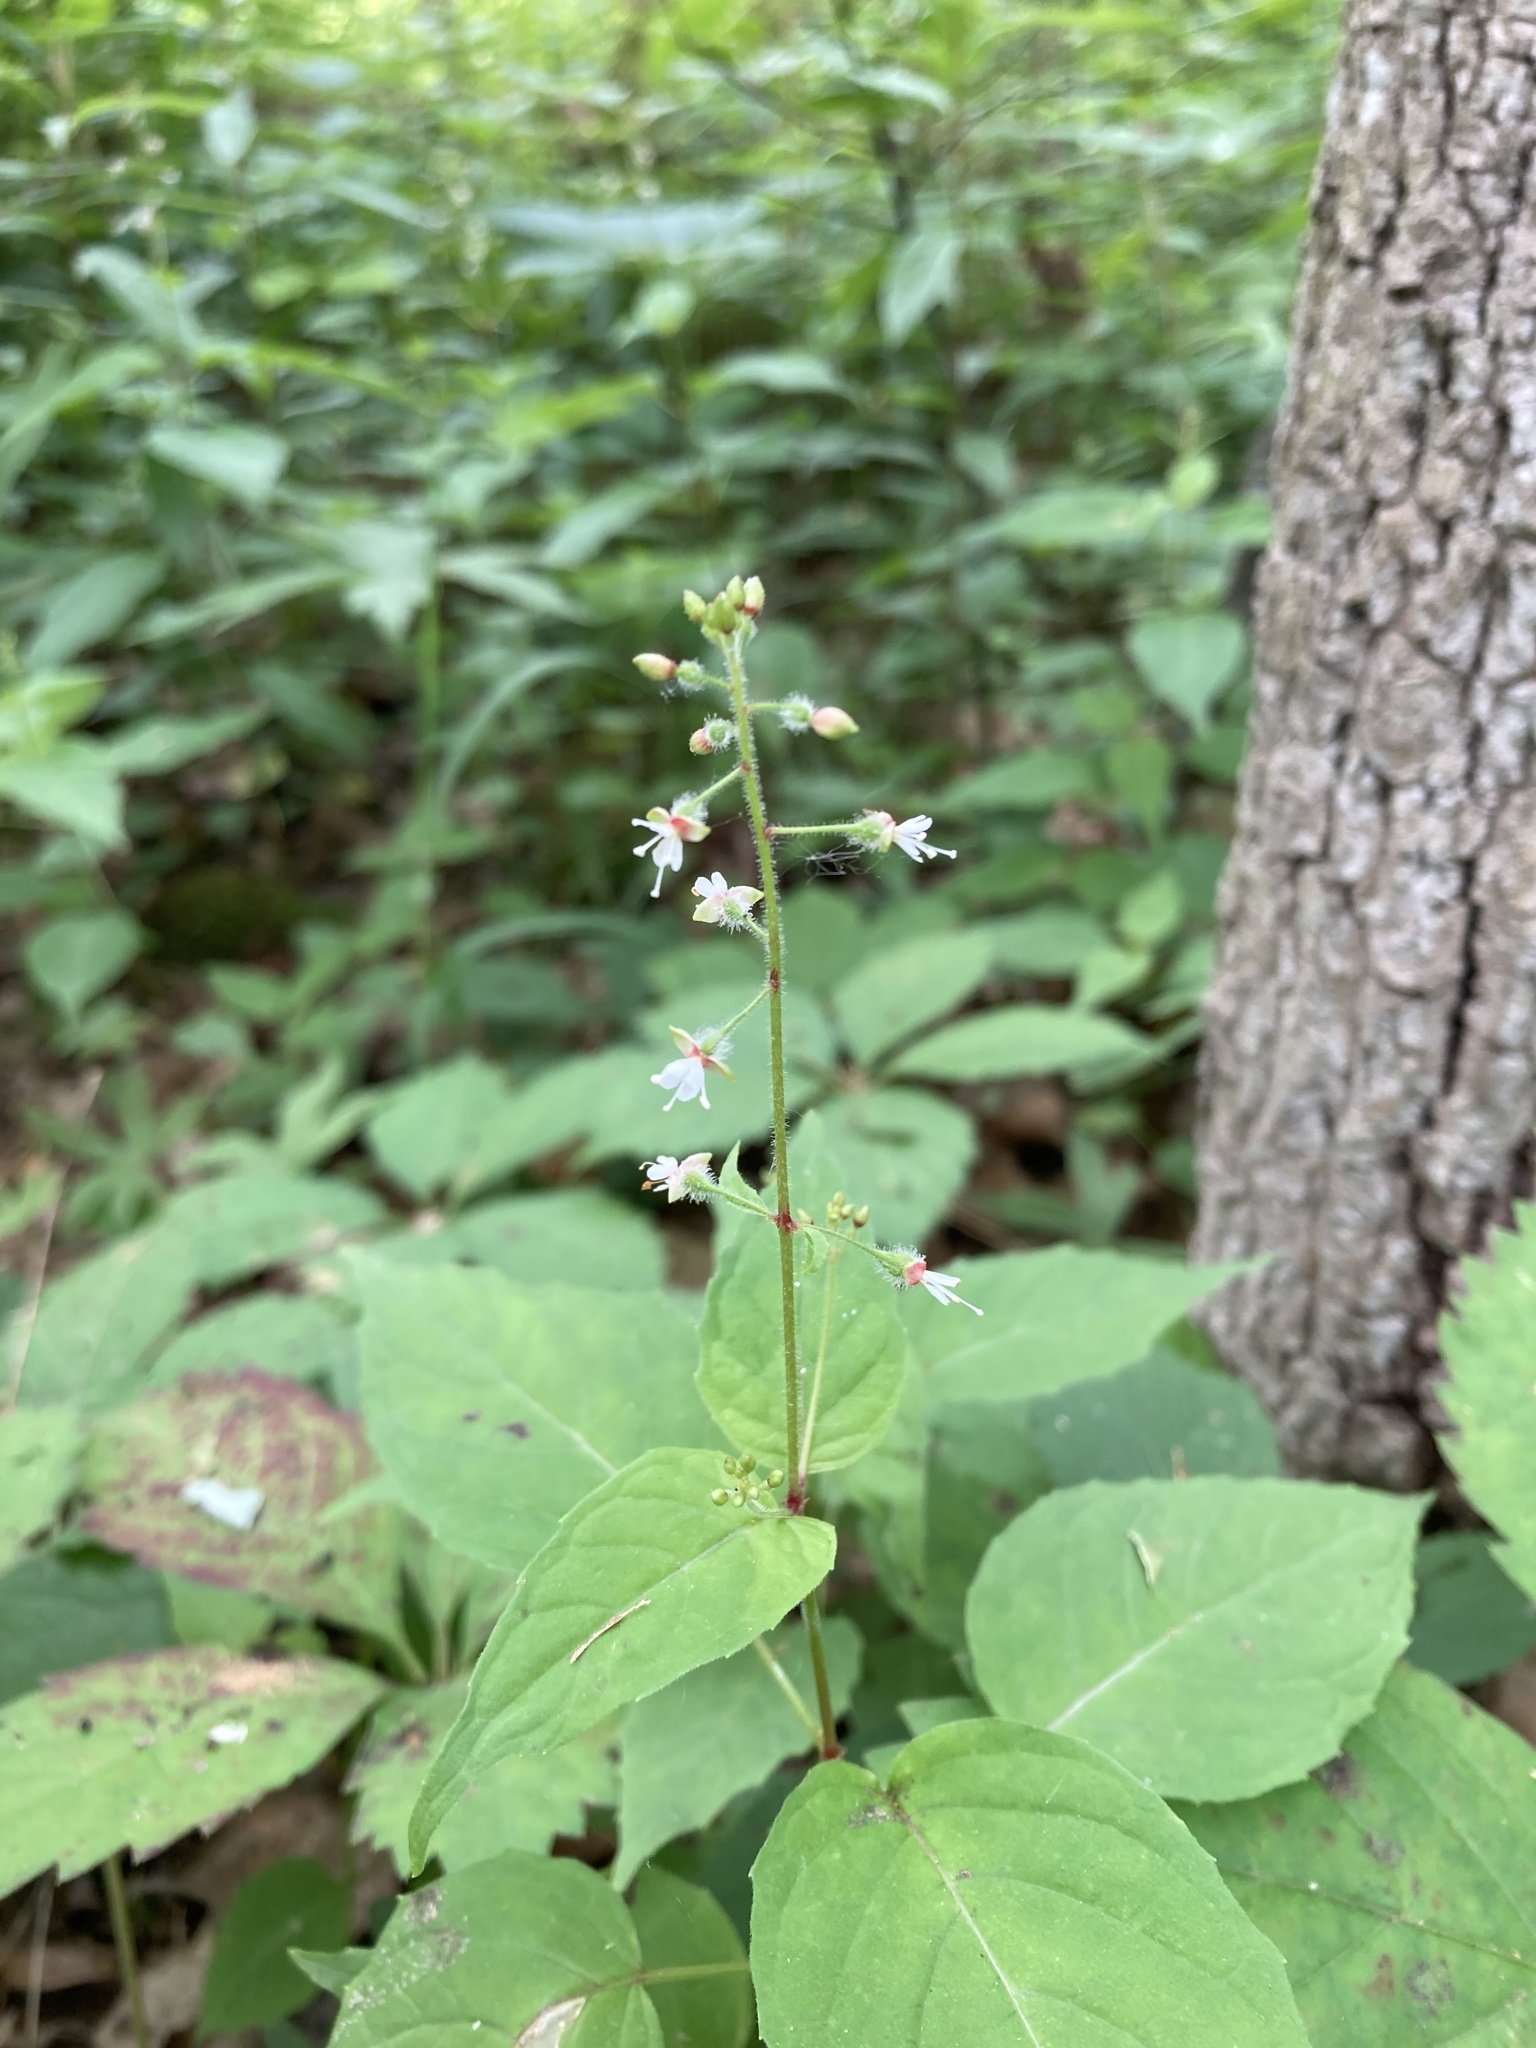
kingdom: Plantae
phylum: Tracheophyta
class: Magnoliopsida
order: Myrtales
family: Onagraceae
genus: Circaea
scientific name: Circaea canadensis
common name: Broad-leaved enchanter's nightshade
